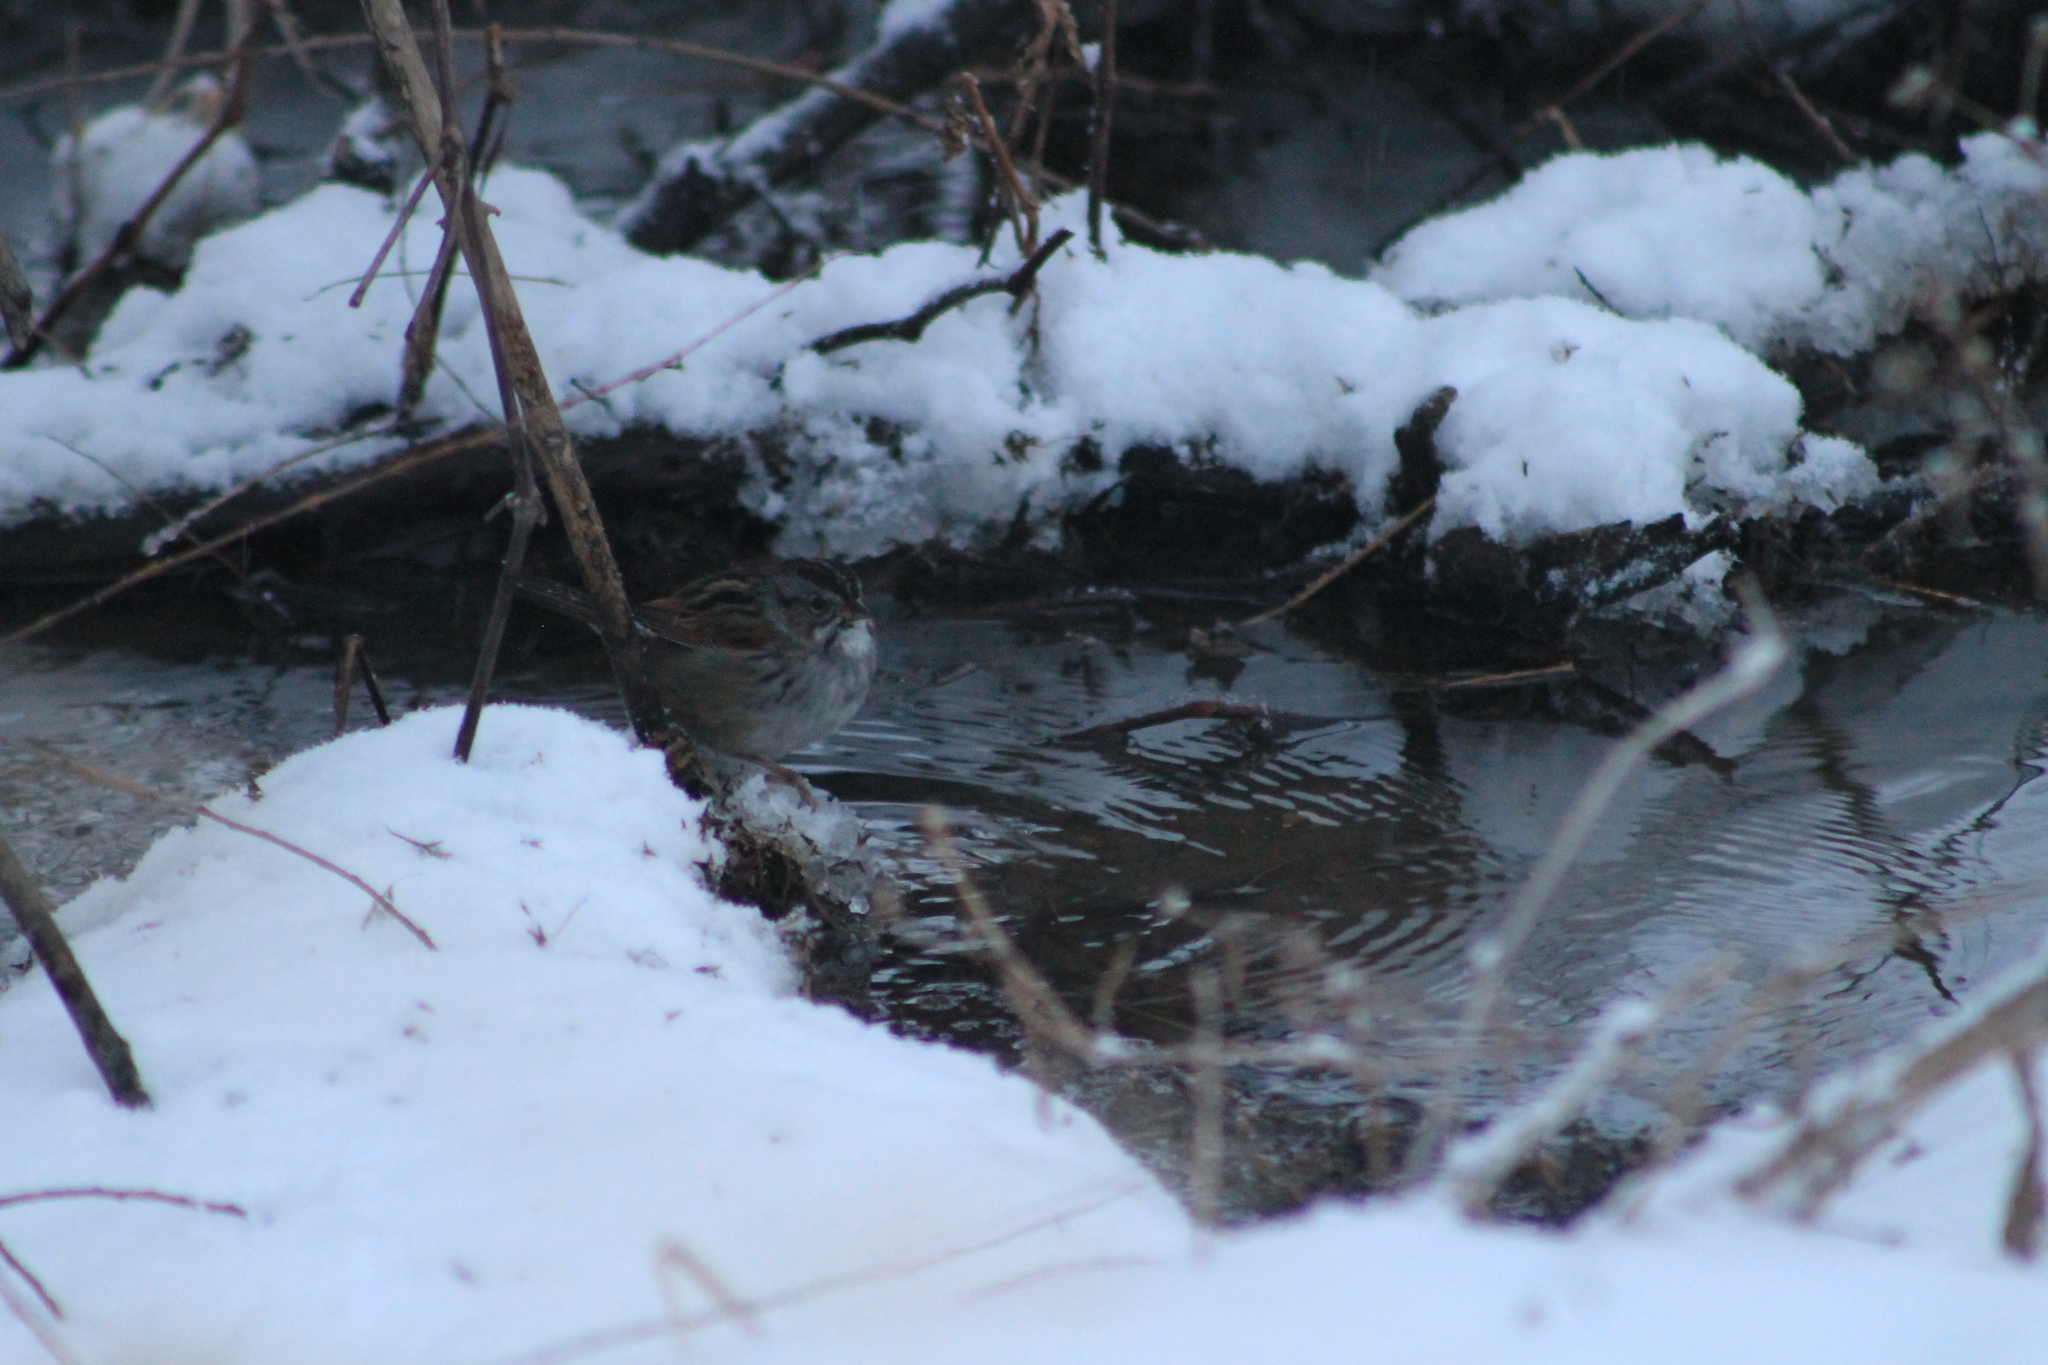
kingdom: Animalia
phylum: Chordata
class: Aves
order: Passeriformes
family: Passerellidae
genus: Melospiza
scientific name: Melospiza georgiana
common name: Swamp sparrow
